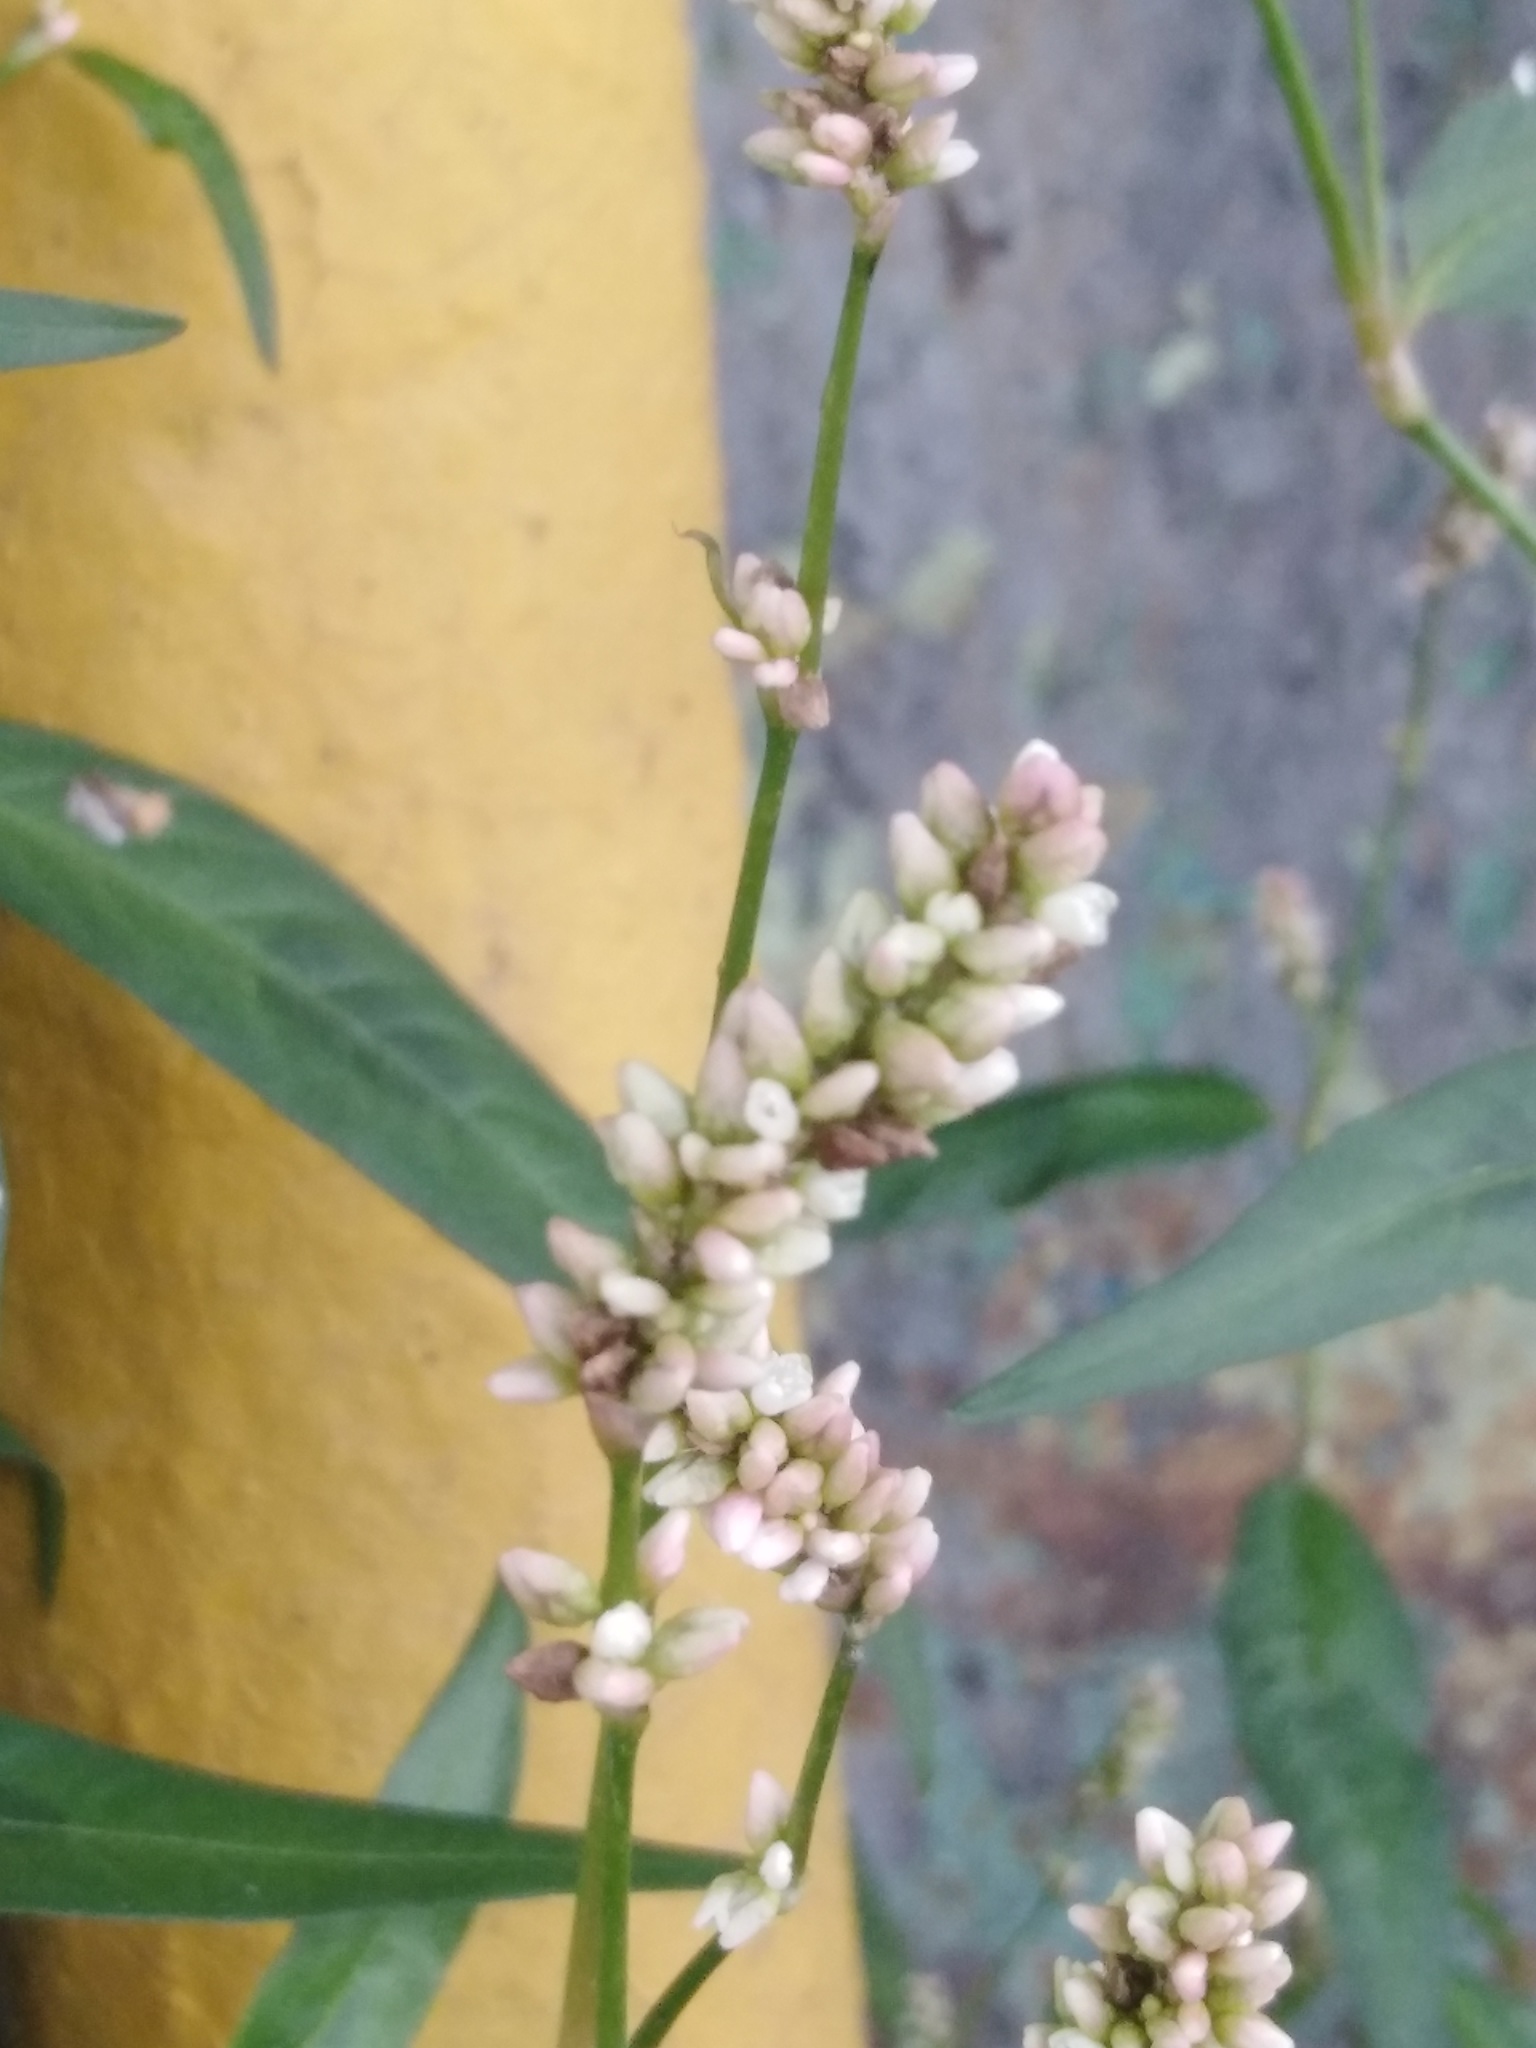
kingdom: Plantae
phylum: Tracheophyta
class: Magnoliopsida
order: Caryophyllales
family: Polygonaceae
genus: Persicaria
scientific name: Persicaria lapathifolia
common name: Curlytop knotweed
